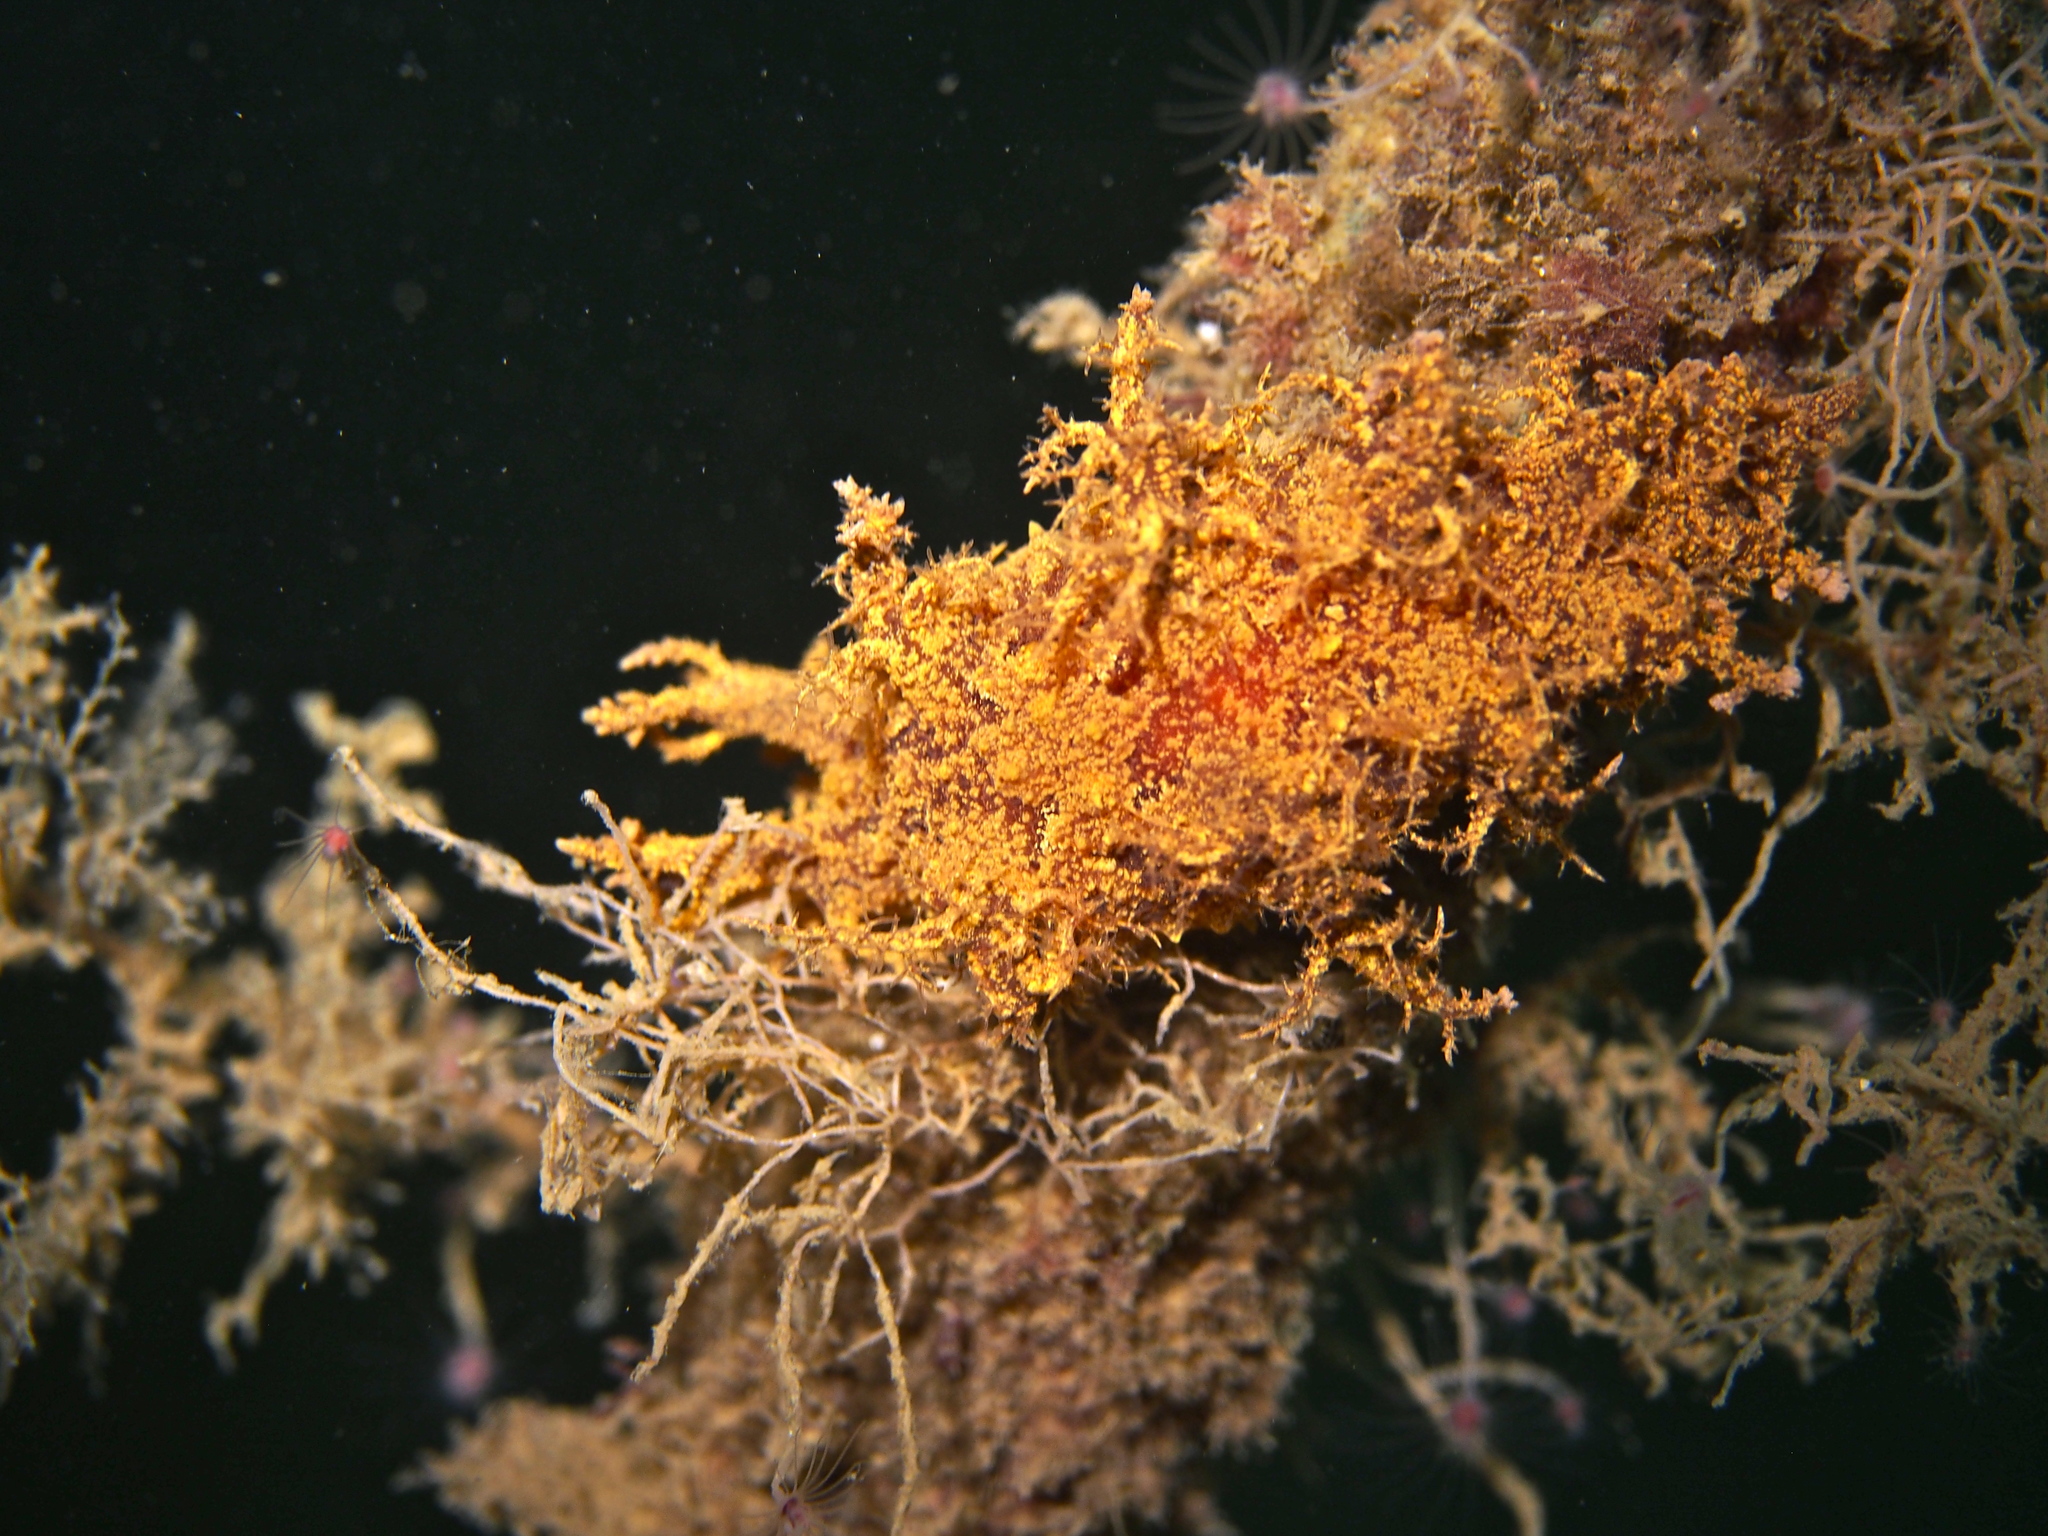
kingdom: Animalia
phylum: Mollusca
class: Gastropoda
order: Nudibranchia
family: Dendronotidae
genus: Dendronotus
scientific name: Dendronotus europaeus
